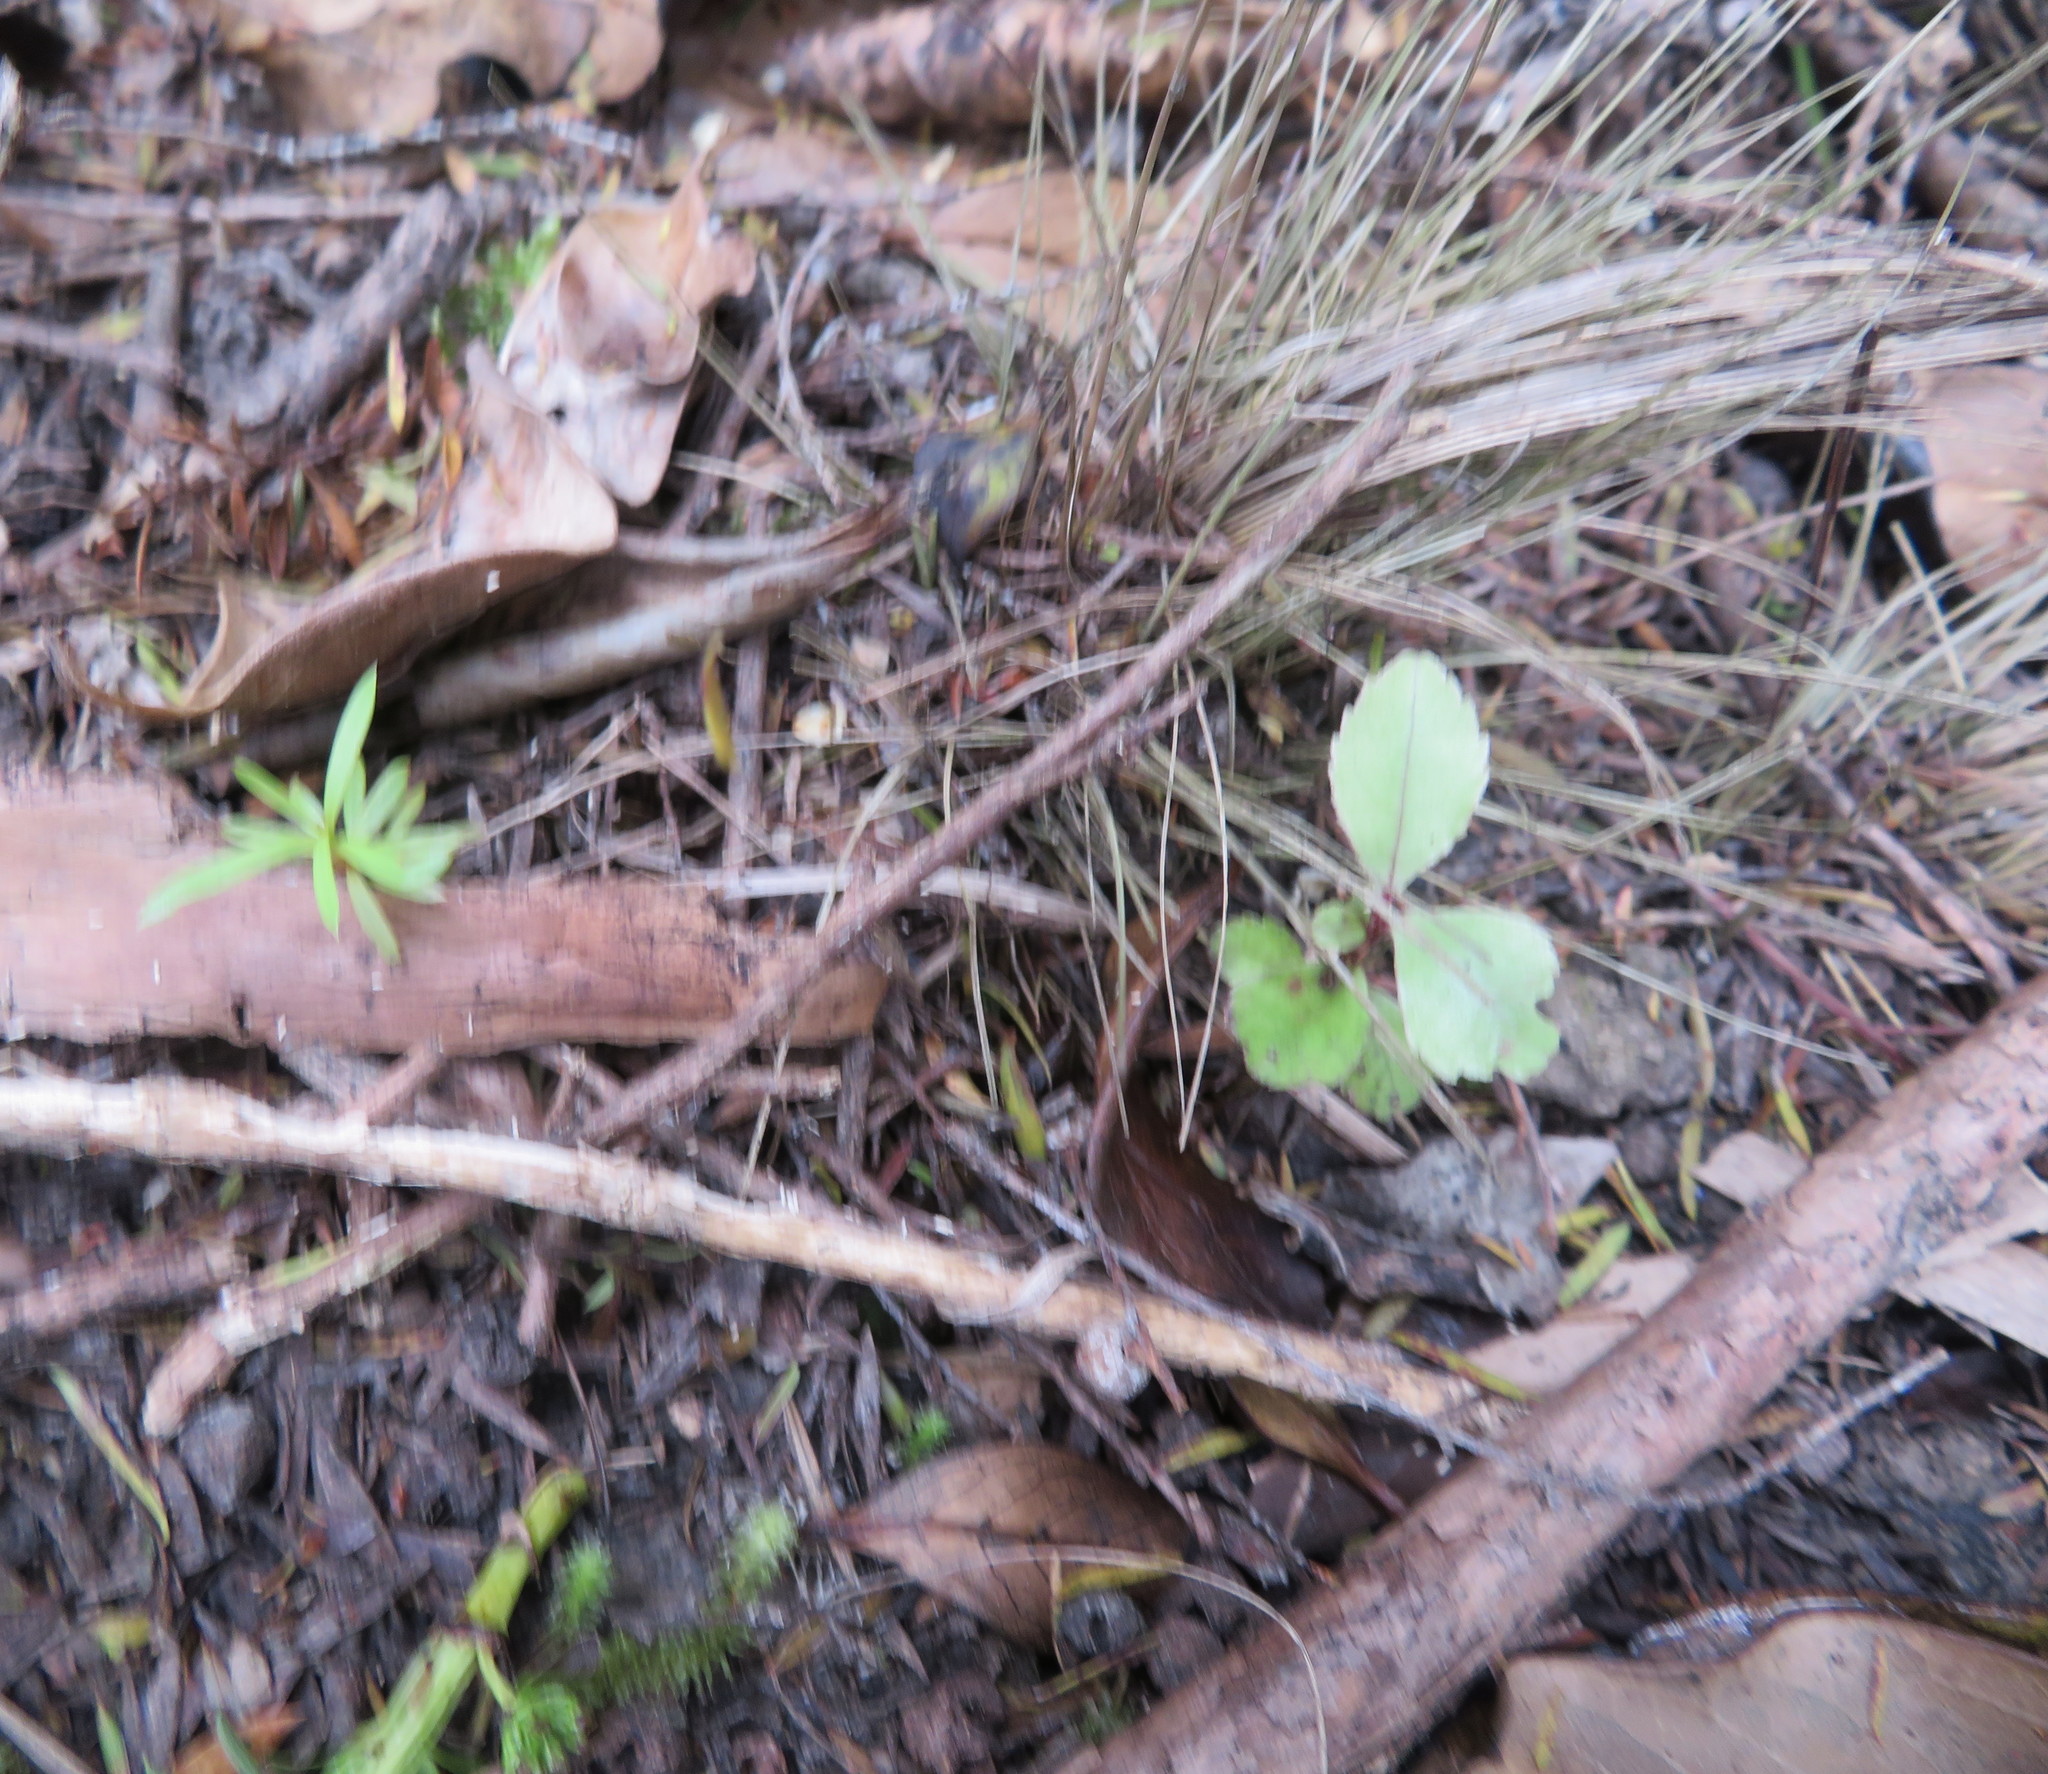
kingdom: Plantae
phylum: Tracheophyta
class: Magnoliopsida
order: Ericales
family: Primulaceae
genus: Myrsine
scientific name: Myrsine australis
